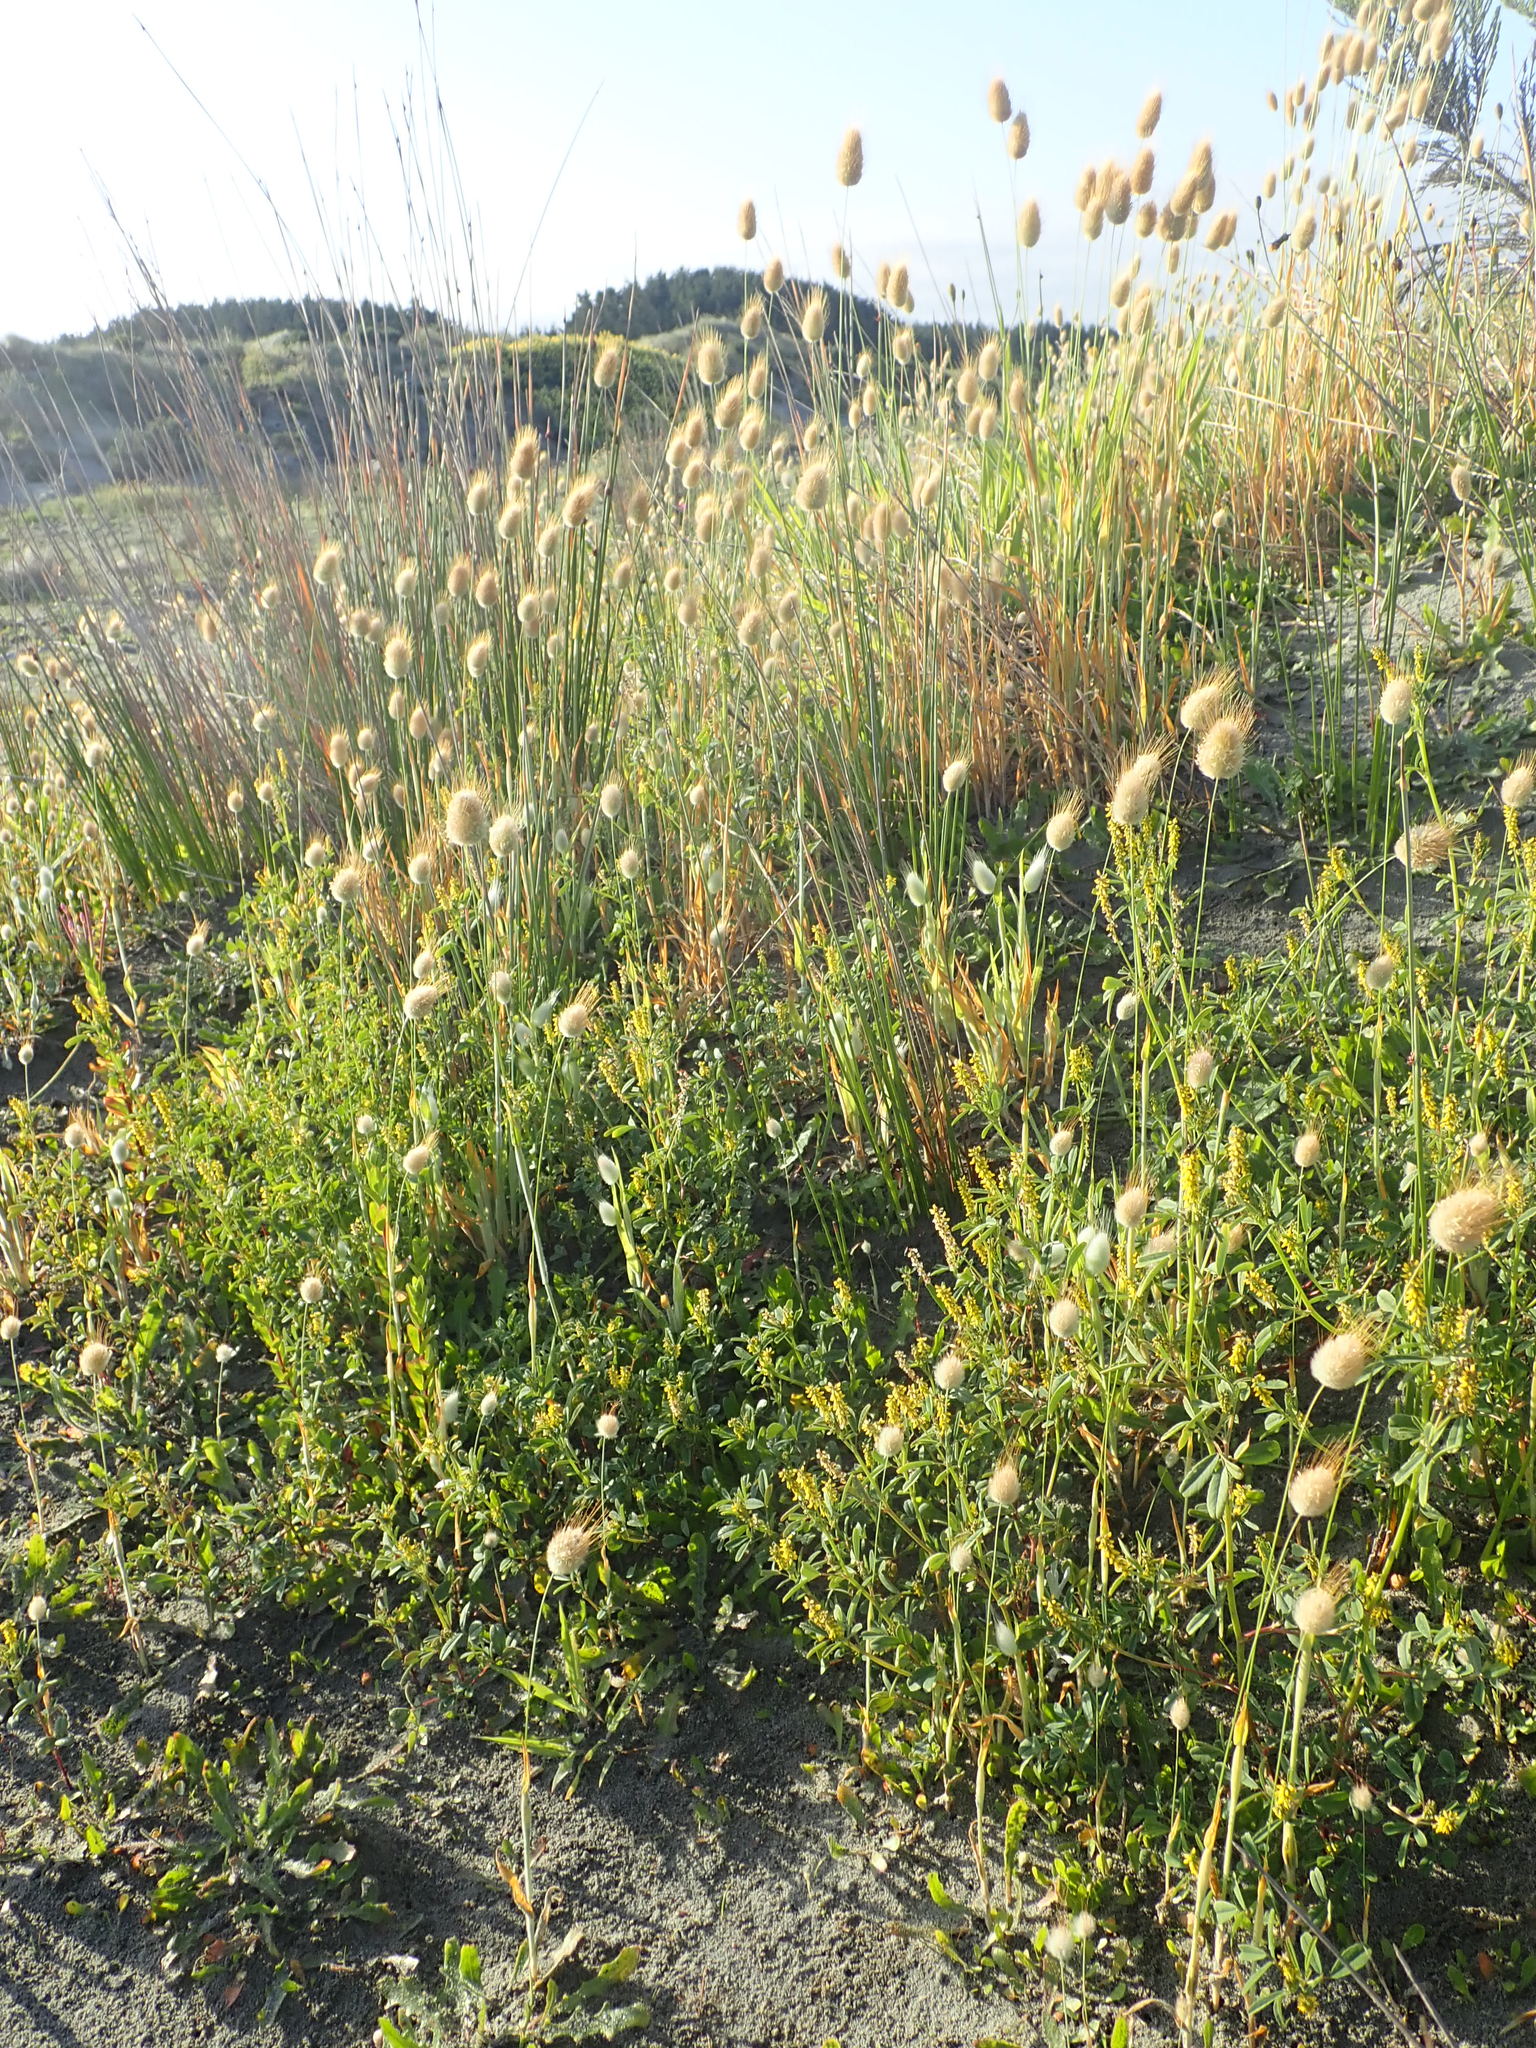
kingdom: Plantae
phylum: Tracheophyta
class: Magnoliopsida
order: Fabales
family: Fabaceae
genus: Melilotus
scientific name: Melilotus indicus
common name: Small melilot
